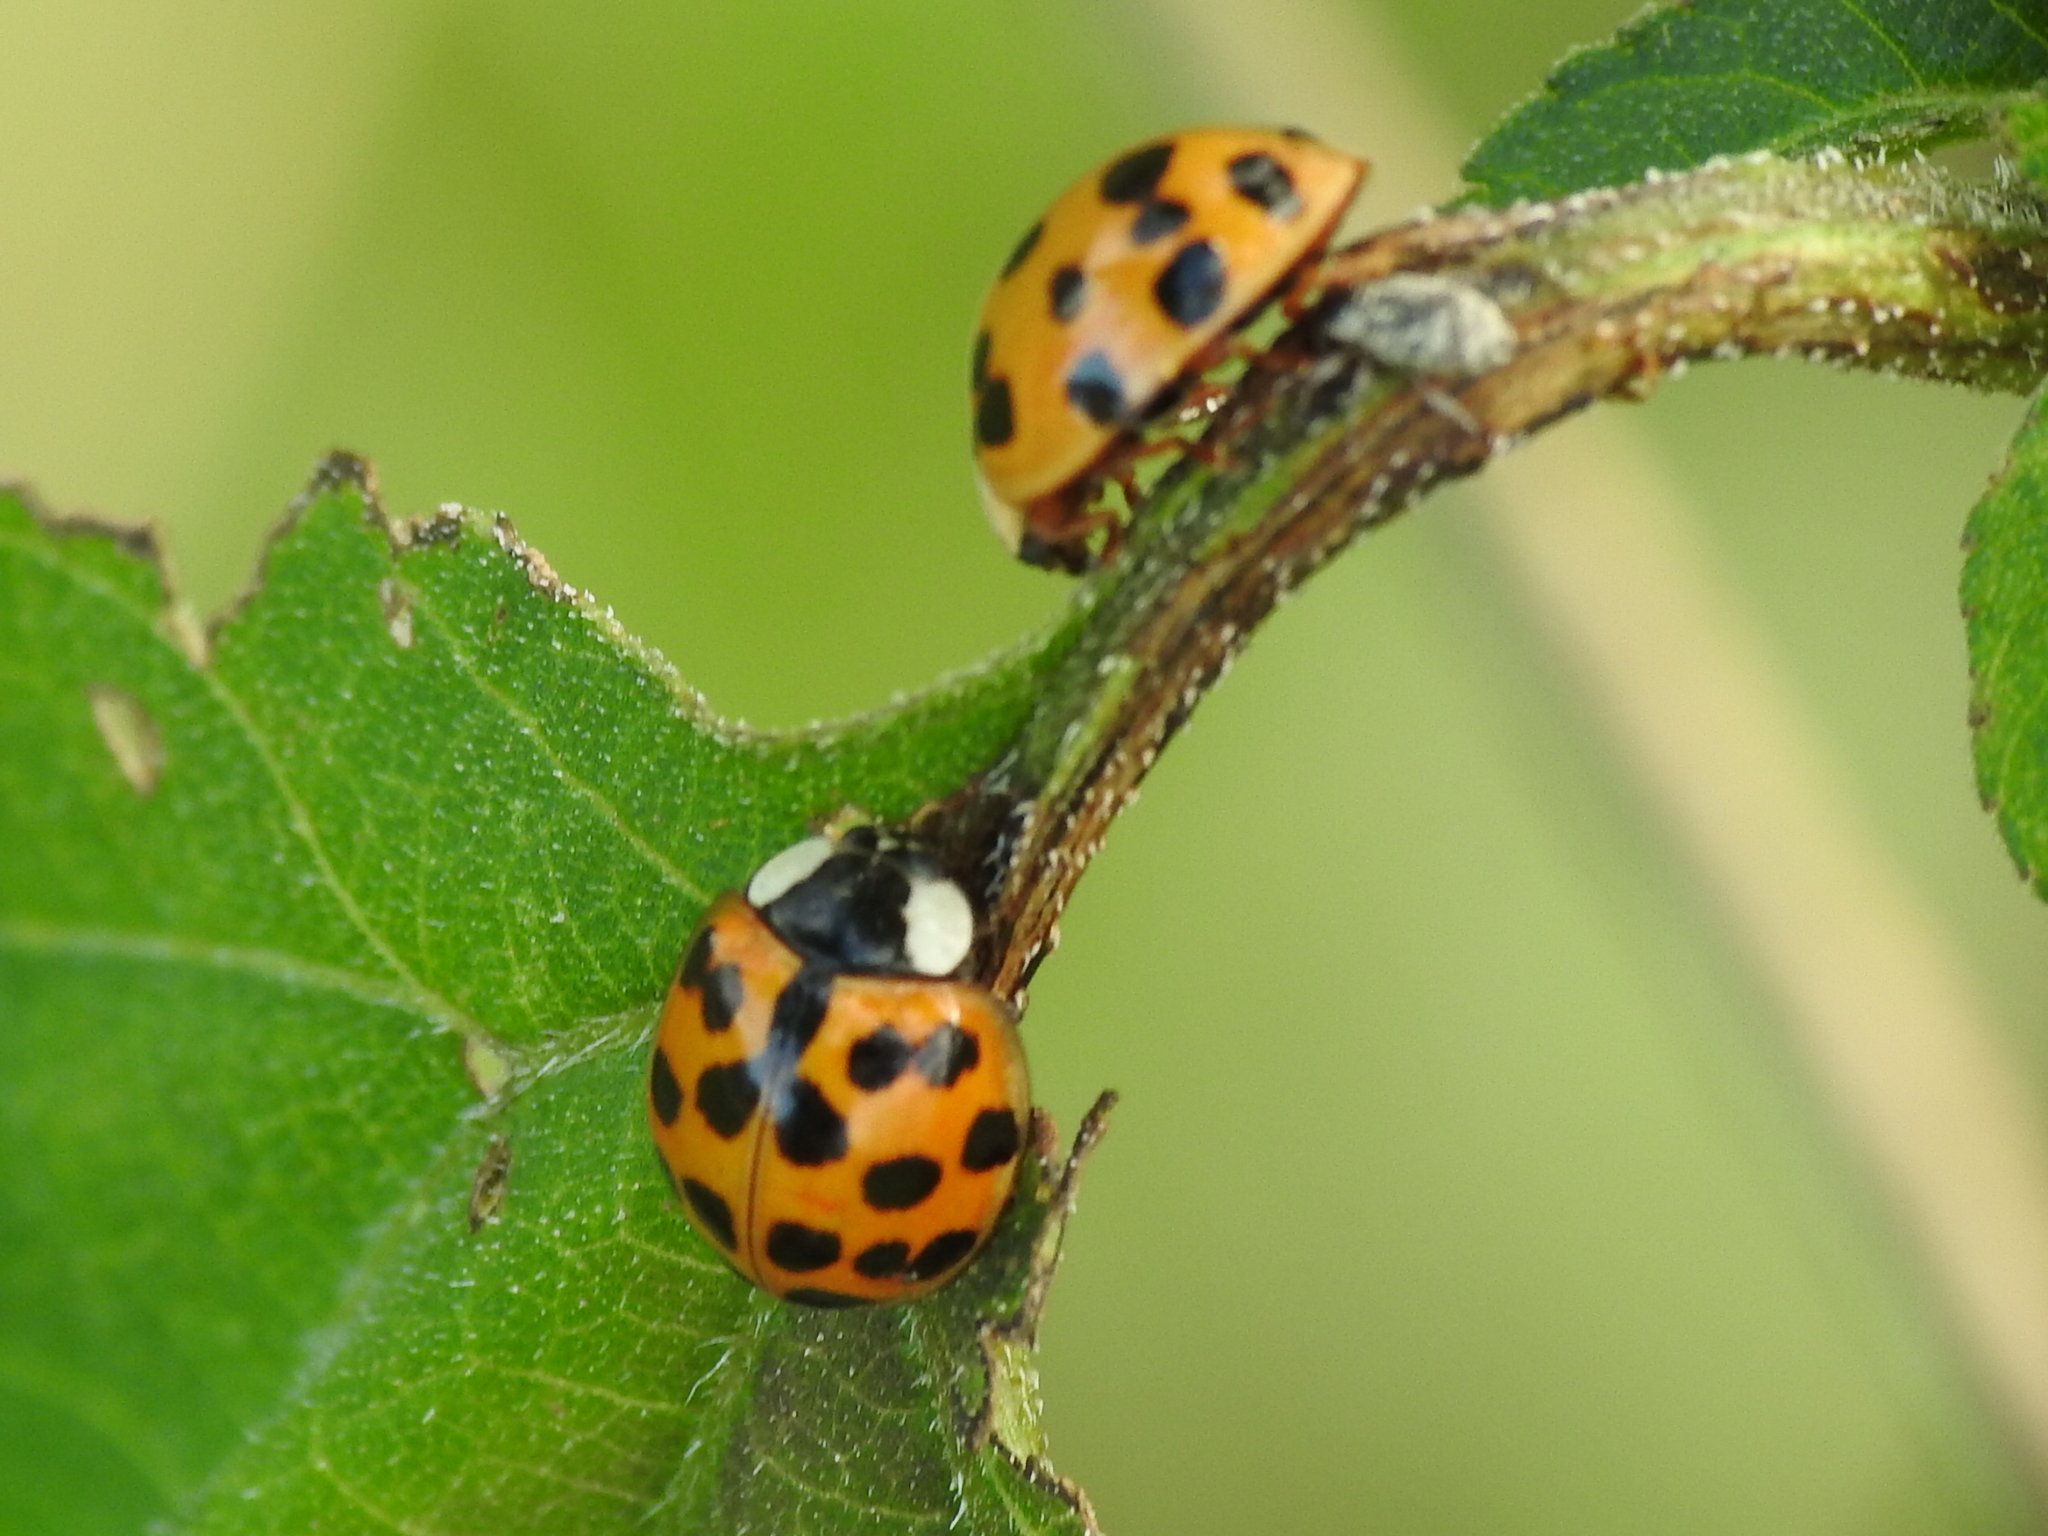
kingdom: Animalia
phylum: Arthropoda
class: Insecta
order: Coleoptera
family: Coccinellidae
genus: Harmonia
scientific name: Harmonia axyridis
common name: Harlequin ladybird
